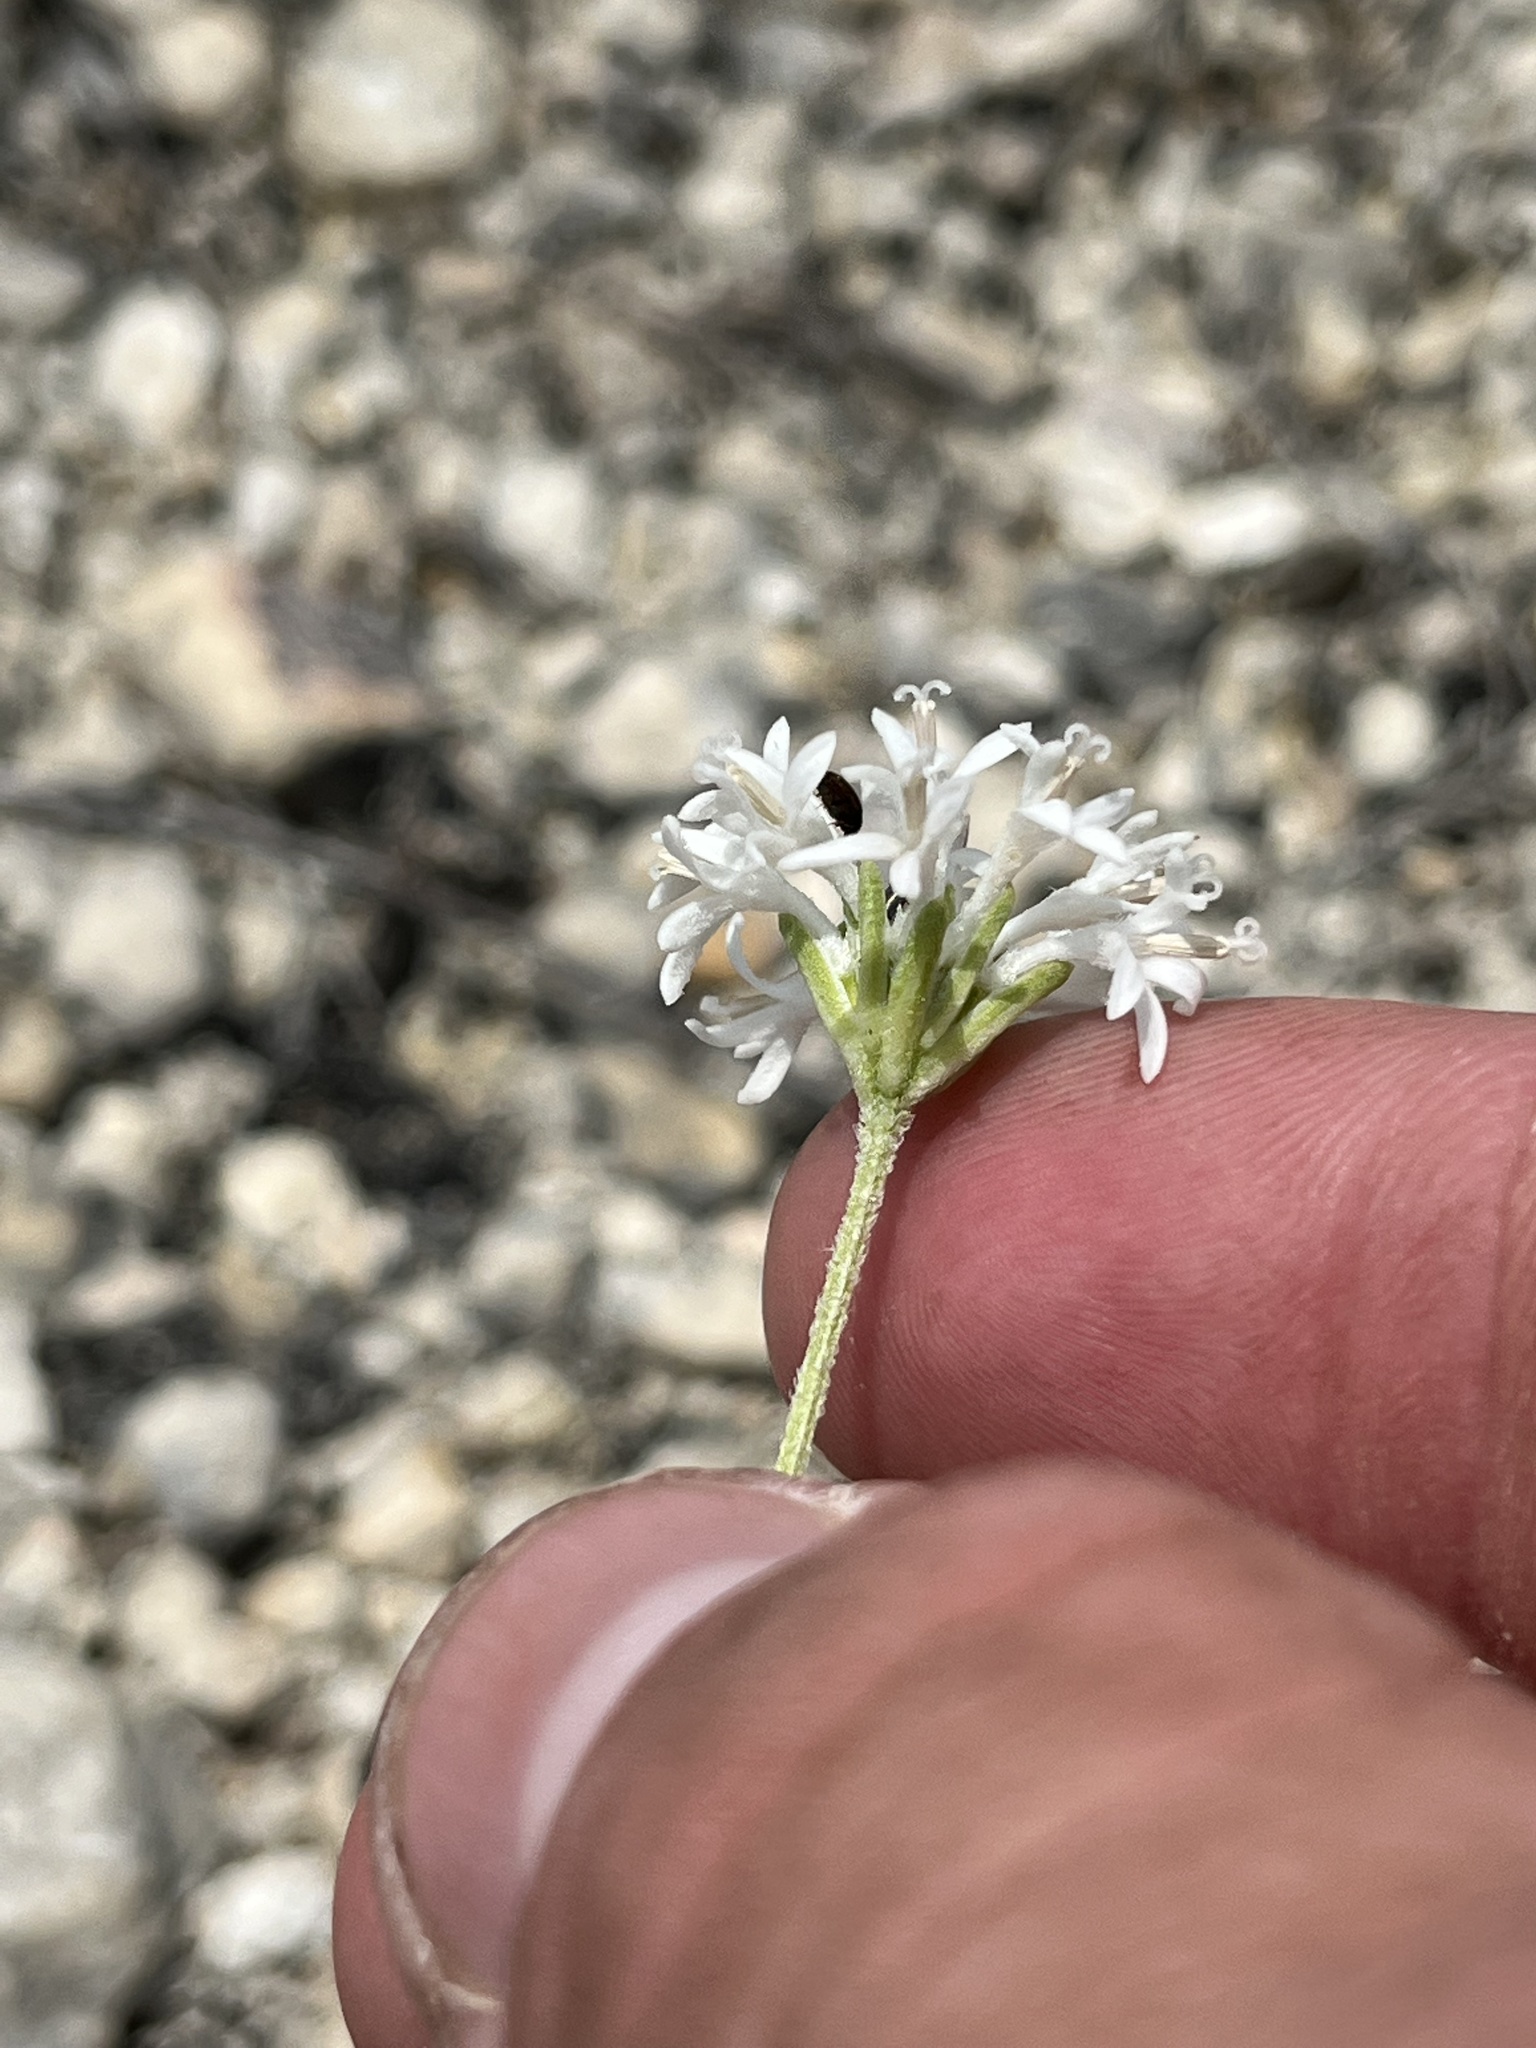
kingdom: Plantae
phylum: Tracheophyta
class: Magnoliopsida
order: Asterales
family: Asteraceae
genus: Marshallia
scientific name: Marshallia caespitosa
